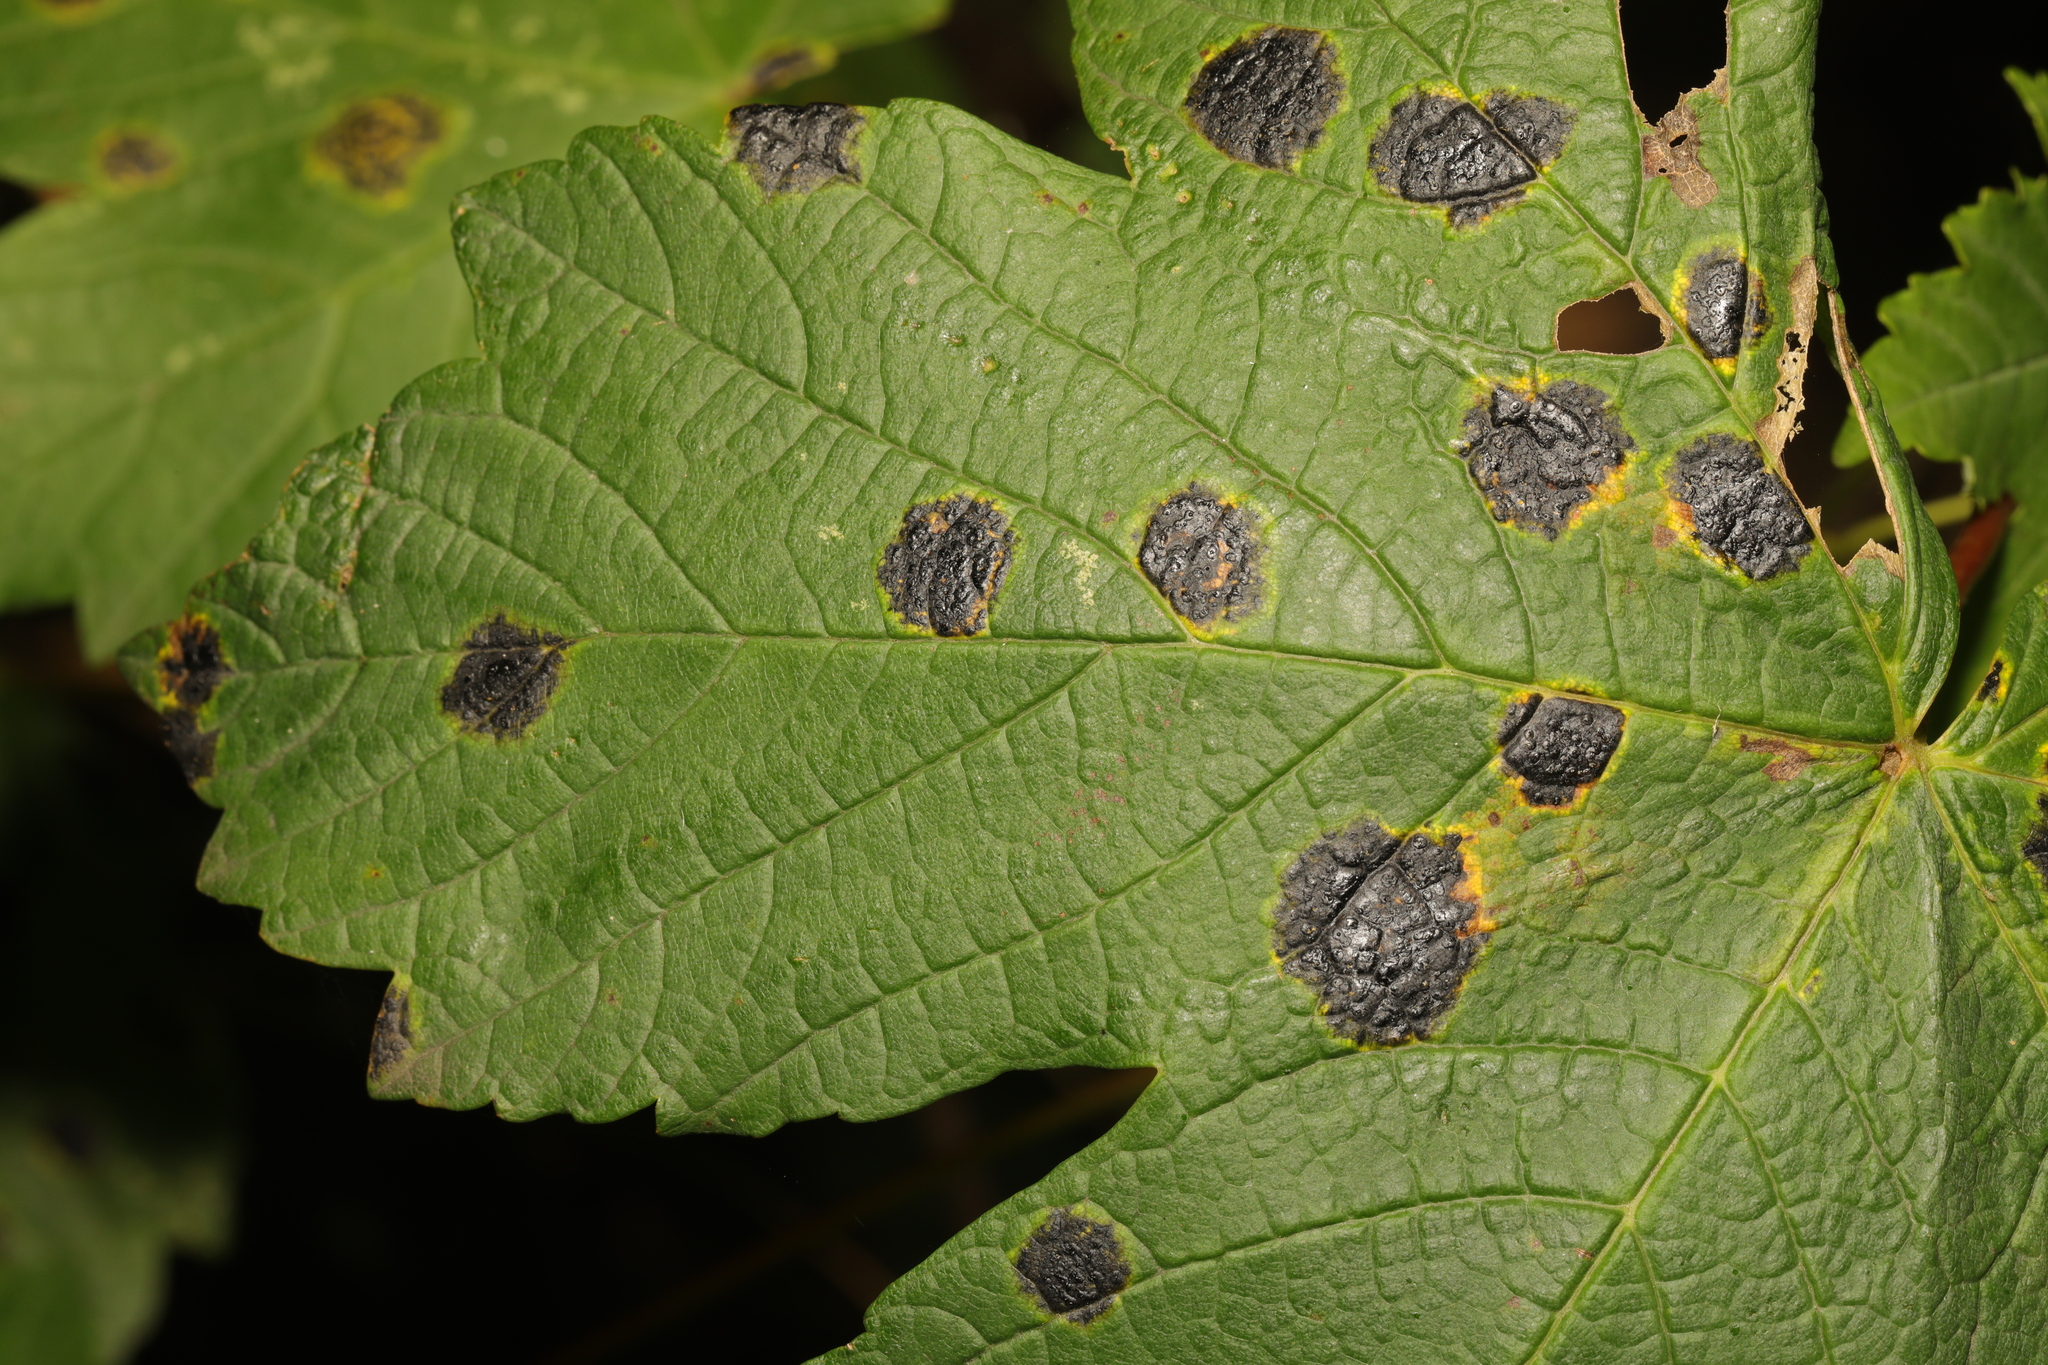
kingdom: Fungi
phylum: Ascomycota
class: Leotiomycetes
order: Rhytismatales
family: Rhytismataceae
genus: Rhytisma
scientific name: Rhytisma acerinum
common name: European tar spot
